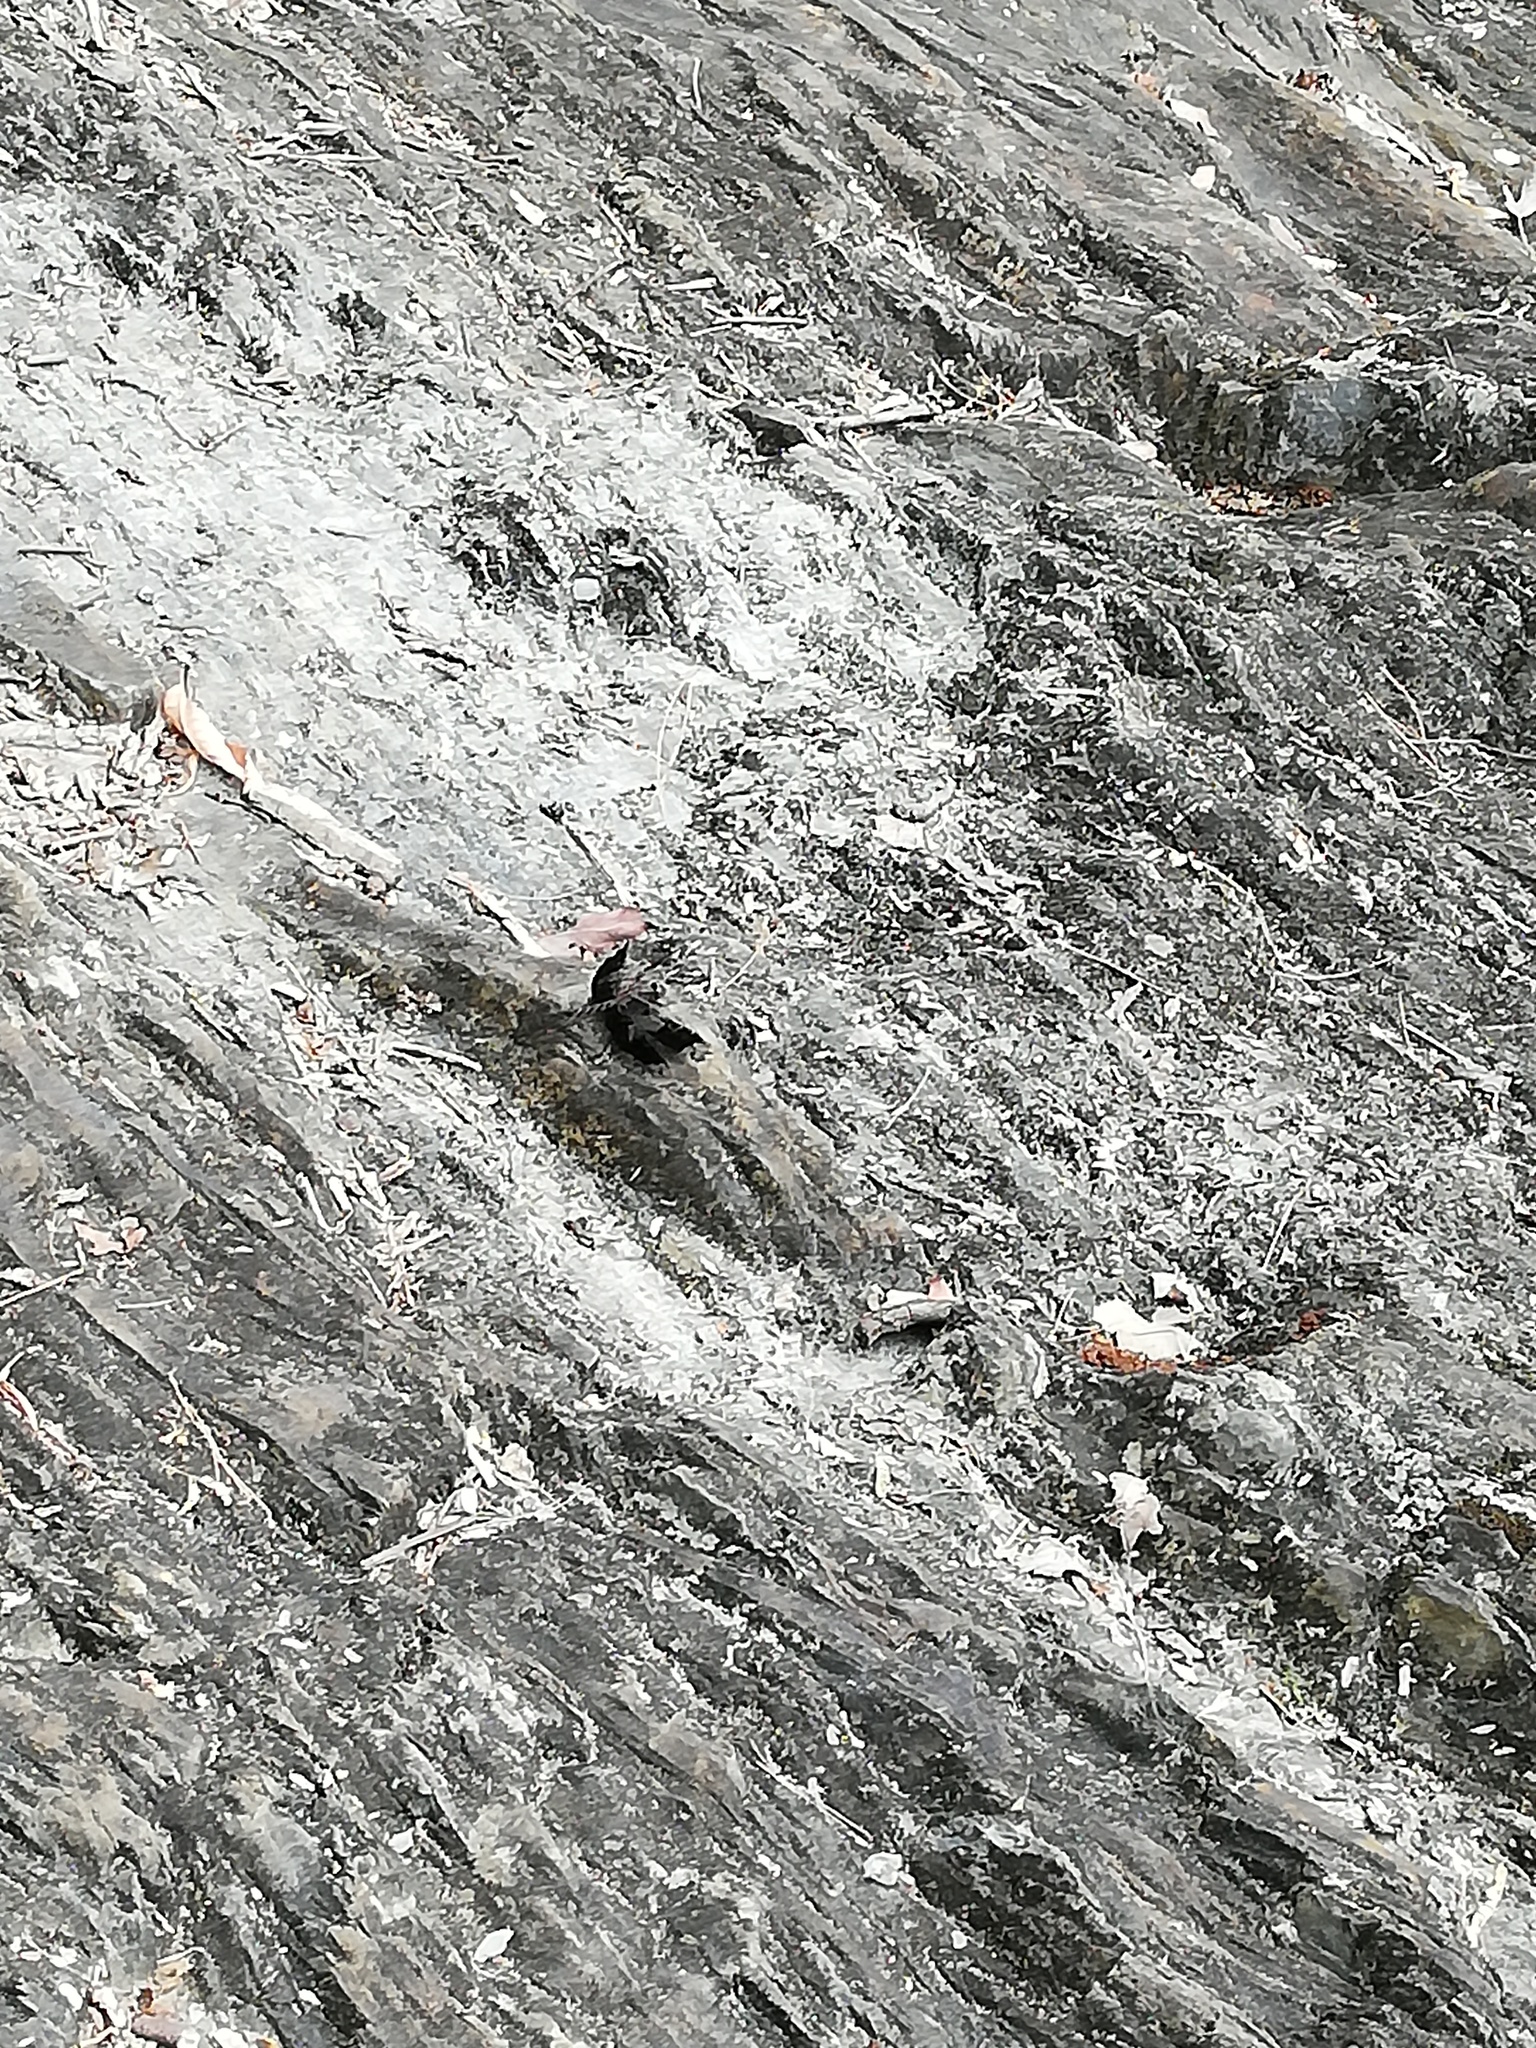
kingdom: Animalia
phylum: Arthropoda
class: Insecta
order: Odonata
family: Libellulidae
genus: Pseudoleon
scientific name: Pseudoleon superbus
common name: Filigree skimmer
